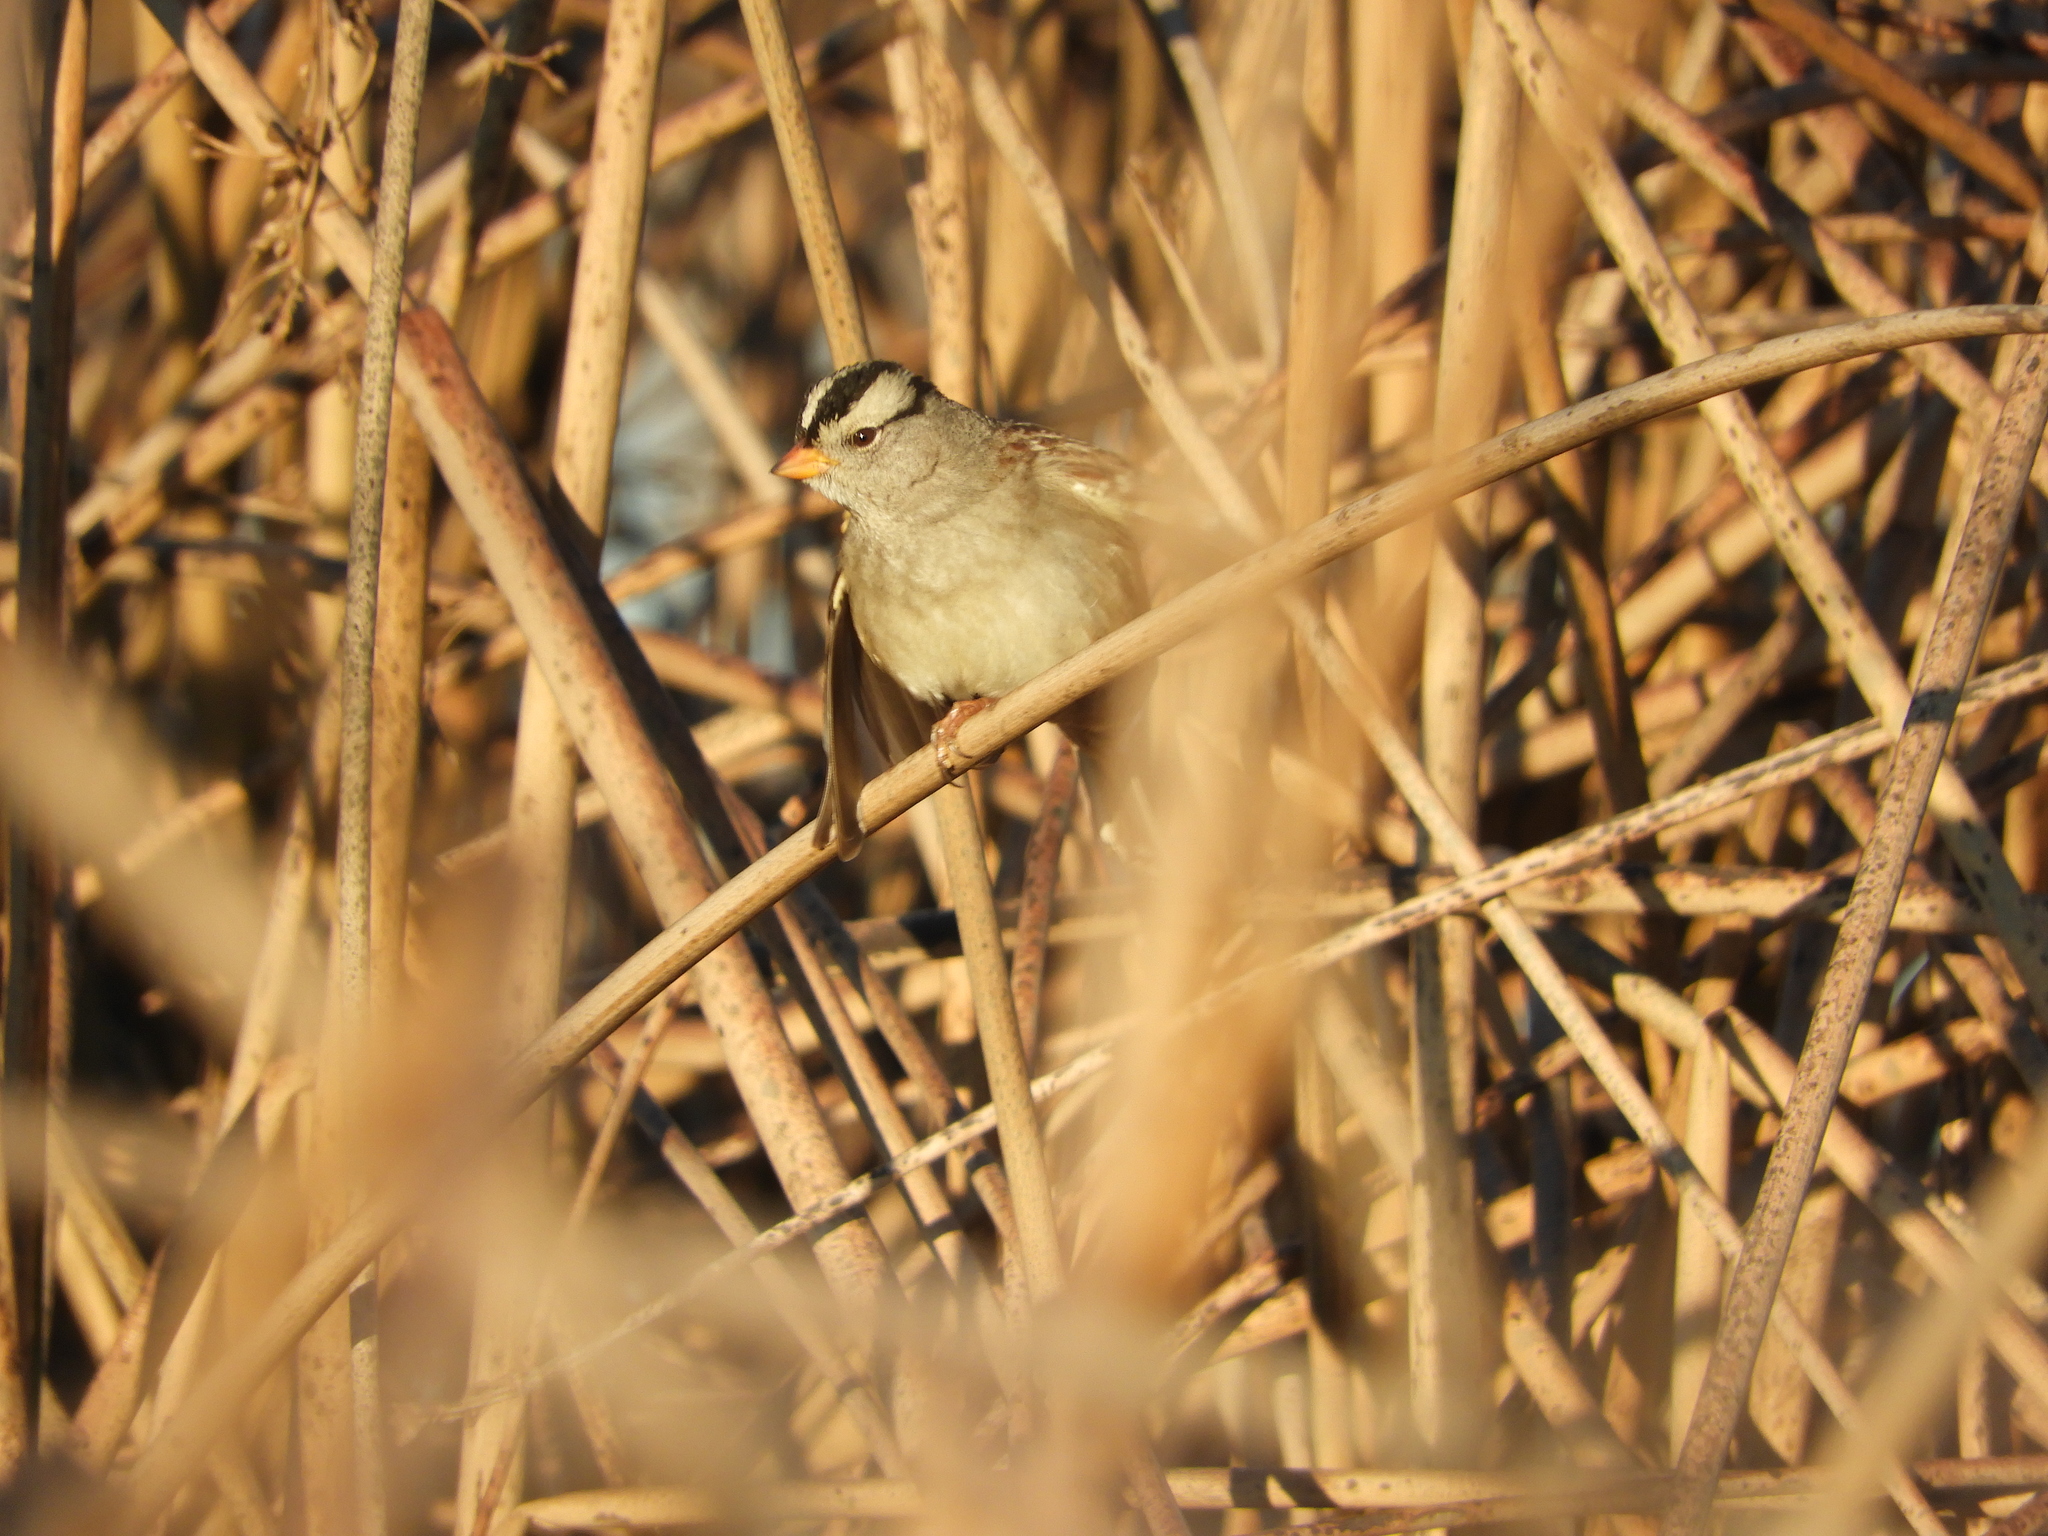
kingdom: Animalia
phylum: Chordata
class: Aves
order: Passeriformes
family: Passerellidae
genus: Zonotrichia
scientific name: Zonotrichia leucophrys
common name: White-crowned sparrow
